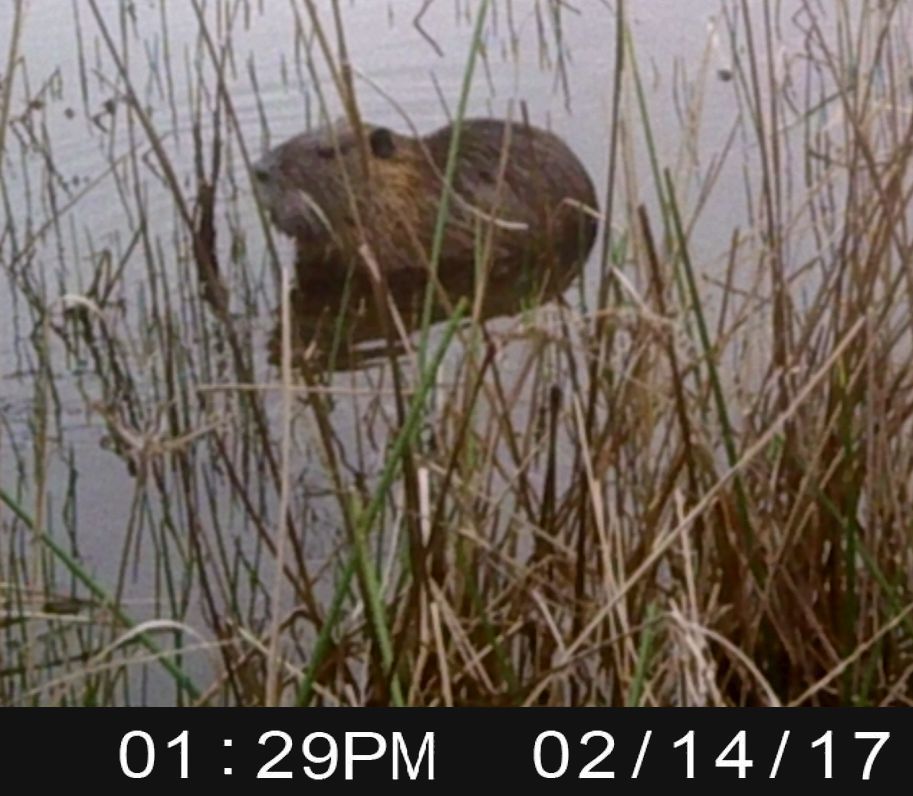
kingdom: Animalia
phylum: Chordata
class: Mammalia
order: Rodentia
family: Myocastoridae
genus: Myocastor
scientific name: Myocastor coypus
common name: Coypu
